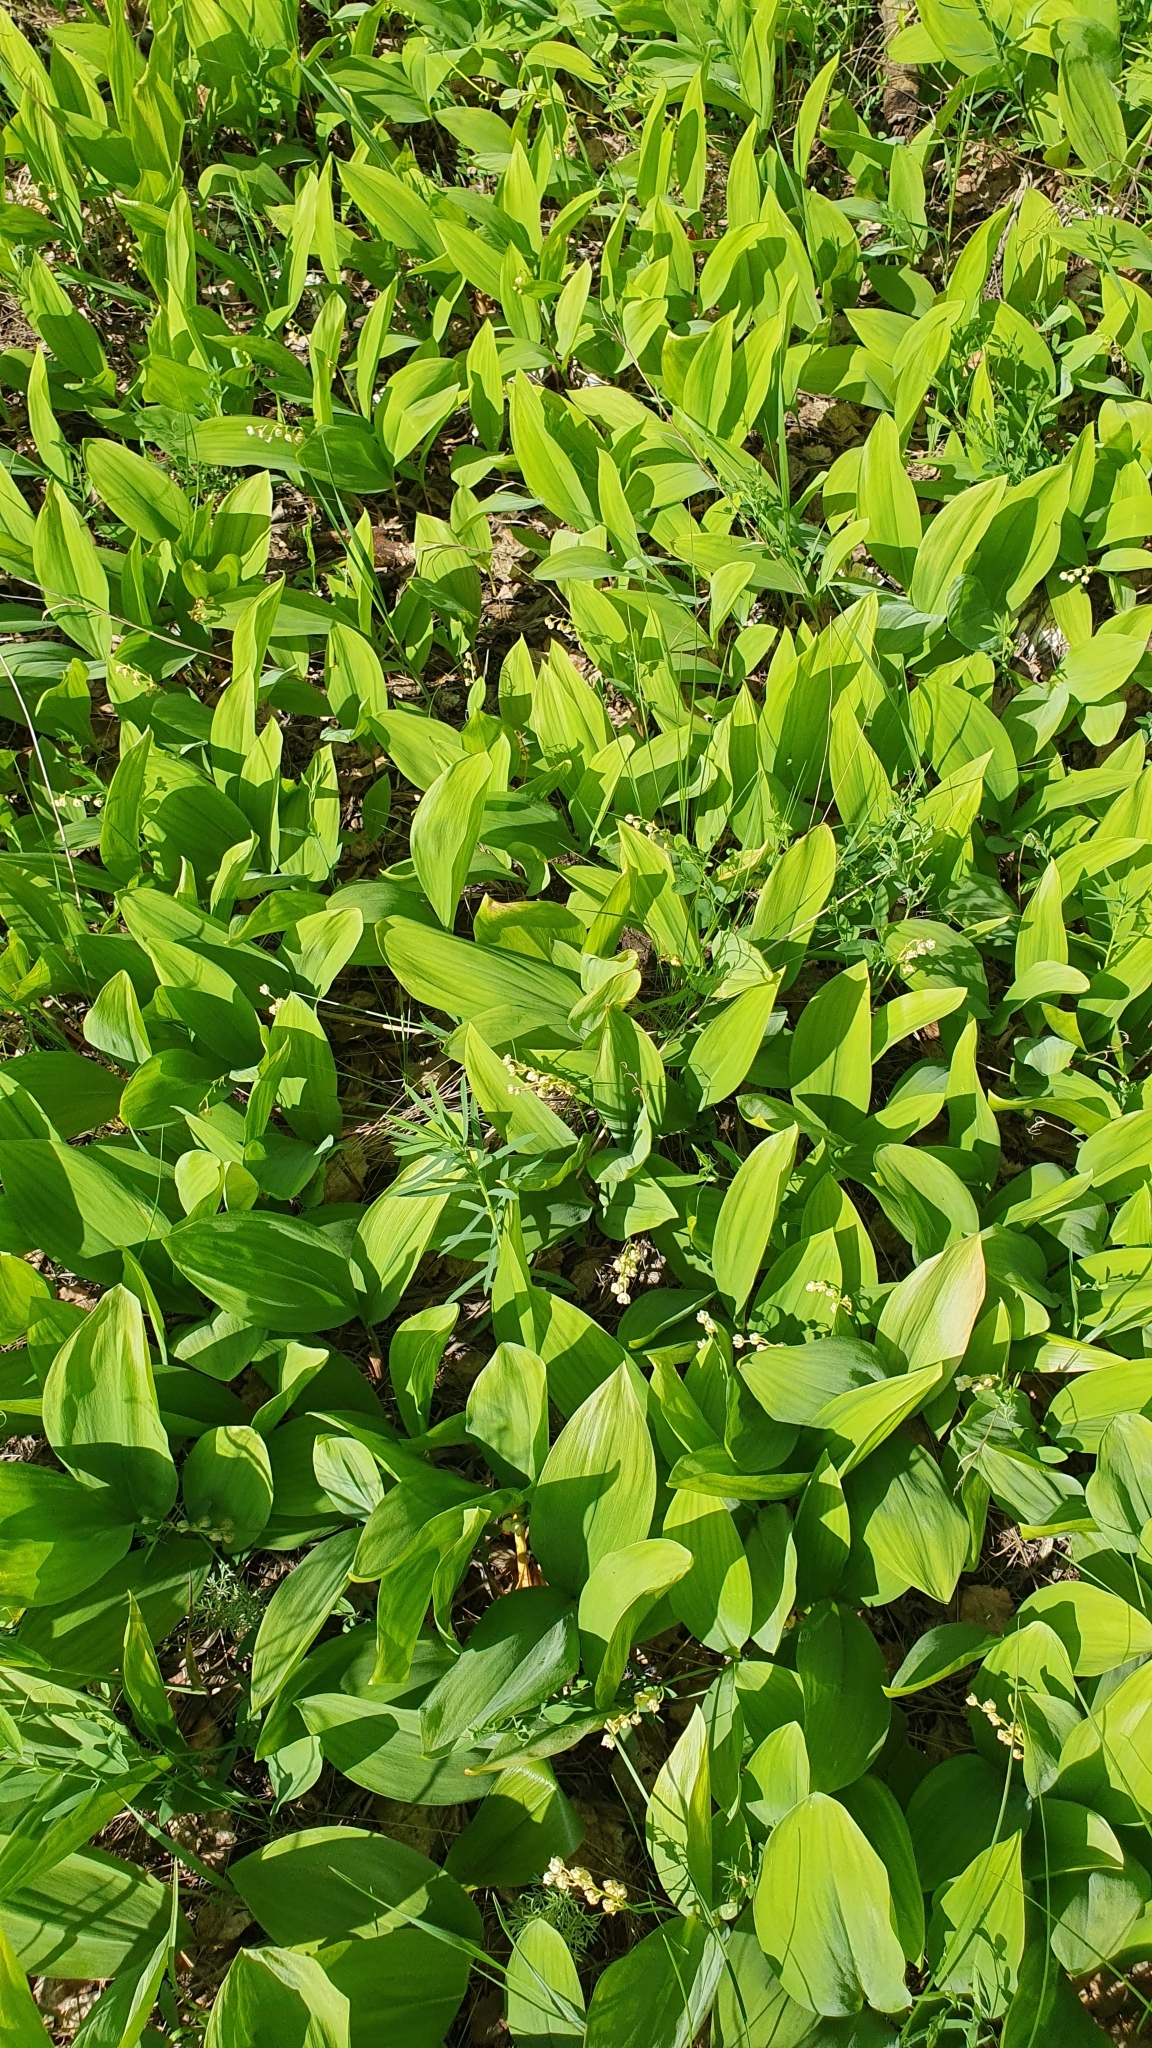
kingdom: Plantae
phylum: Tracheophyta
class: Liliopsida
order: Asparagales
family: Asparagaceae
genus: Convallaria
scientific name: Convallaria majalis
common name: Lily-of-the-valley
